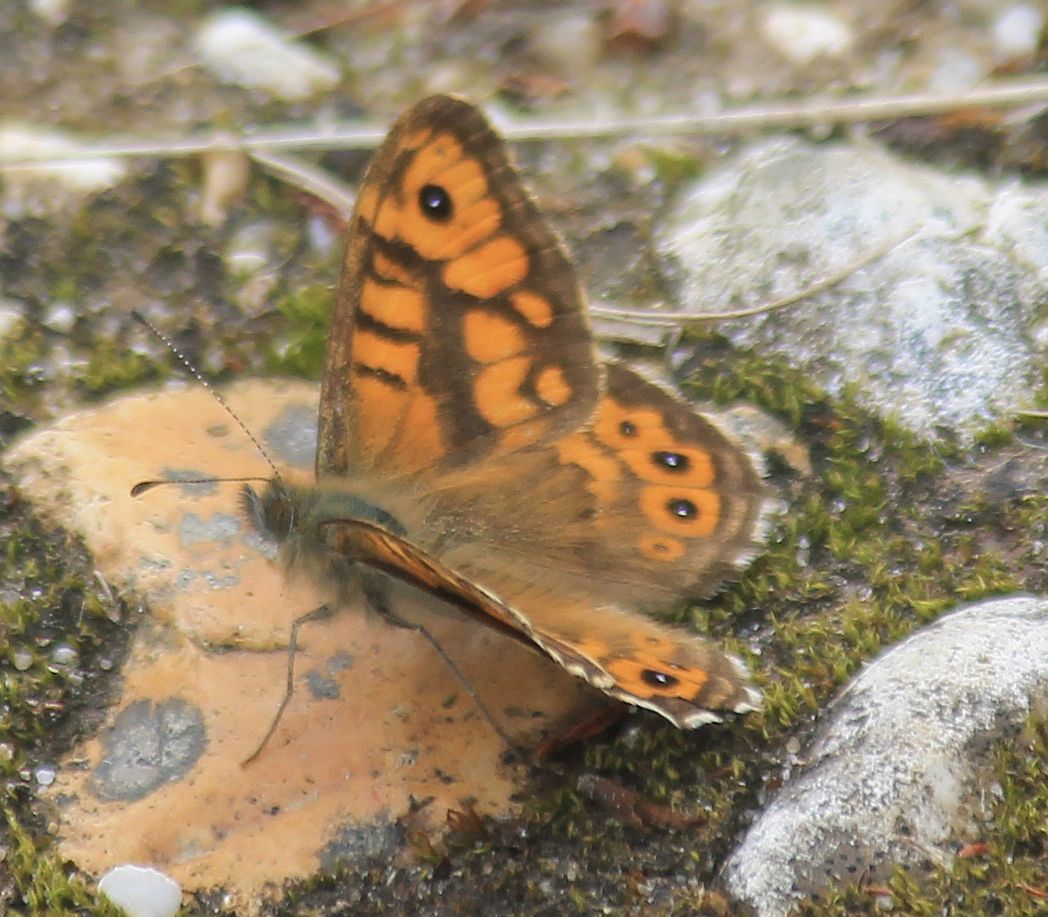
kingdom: Animalia
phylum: Arthropoda
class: Insecta
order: Lepidoptera
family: Nymphalidae
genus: Pararge
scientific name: Pararge Lasiommata megera
